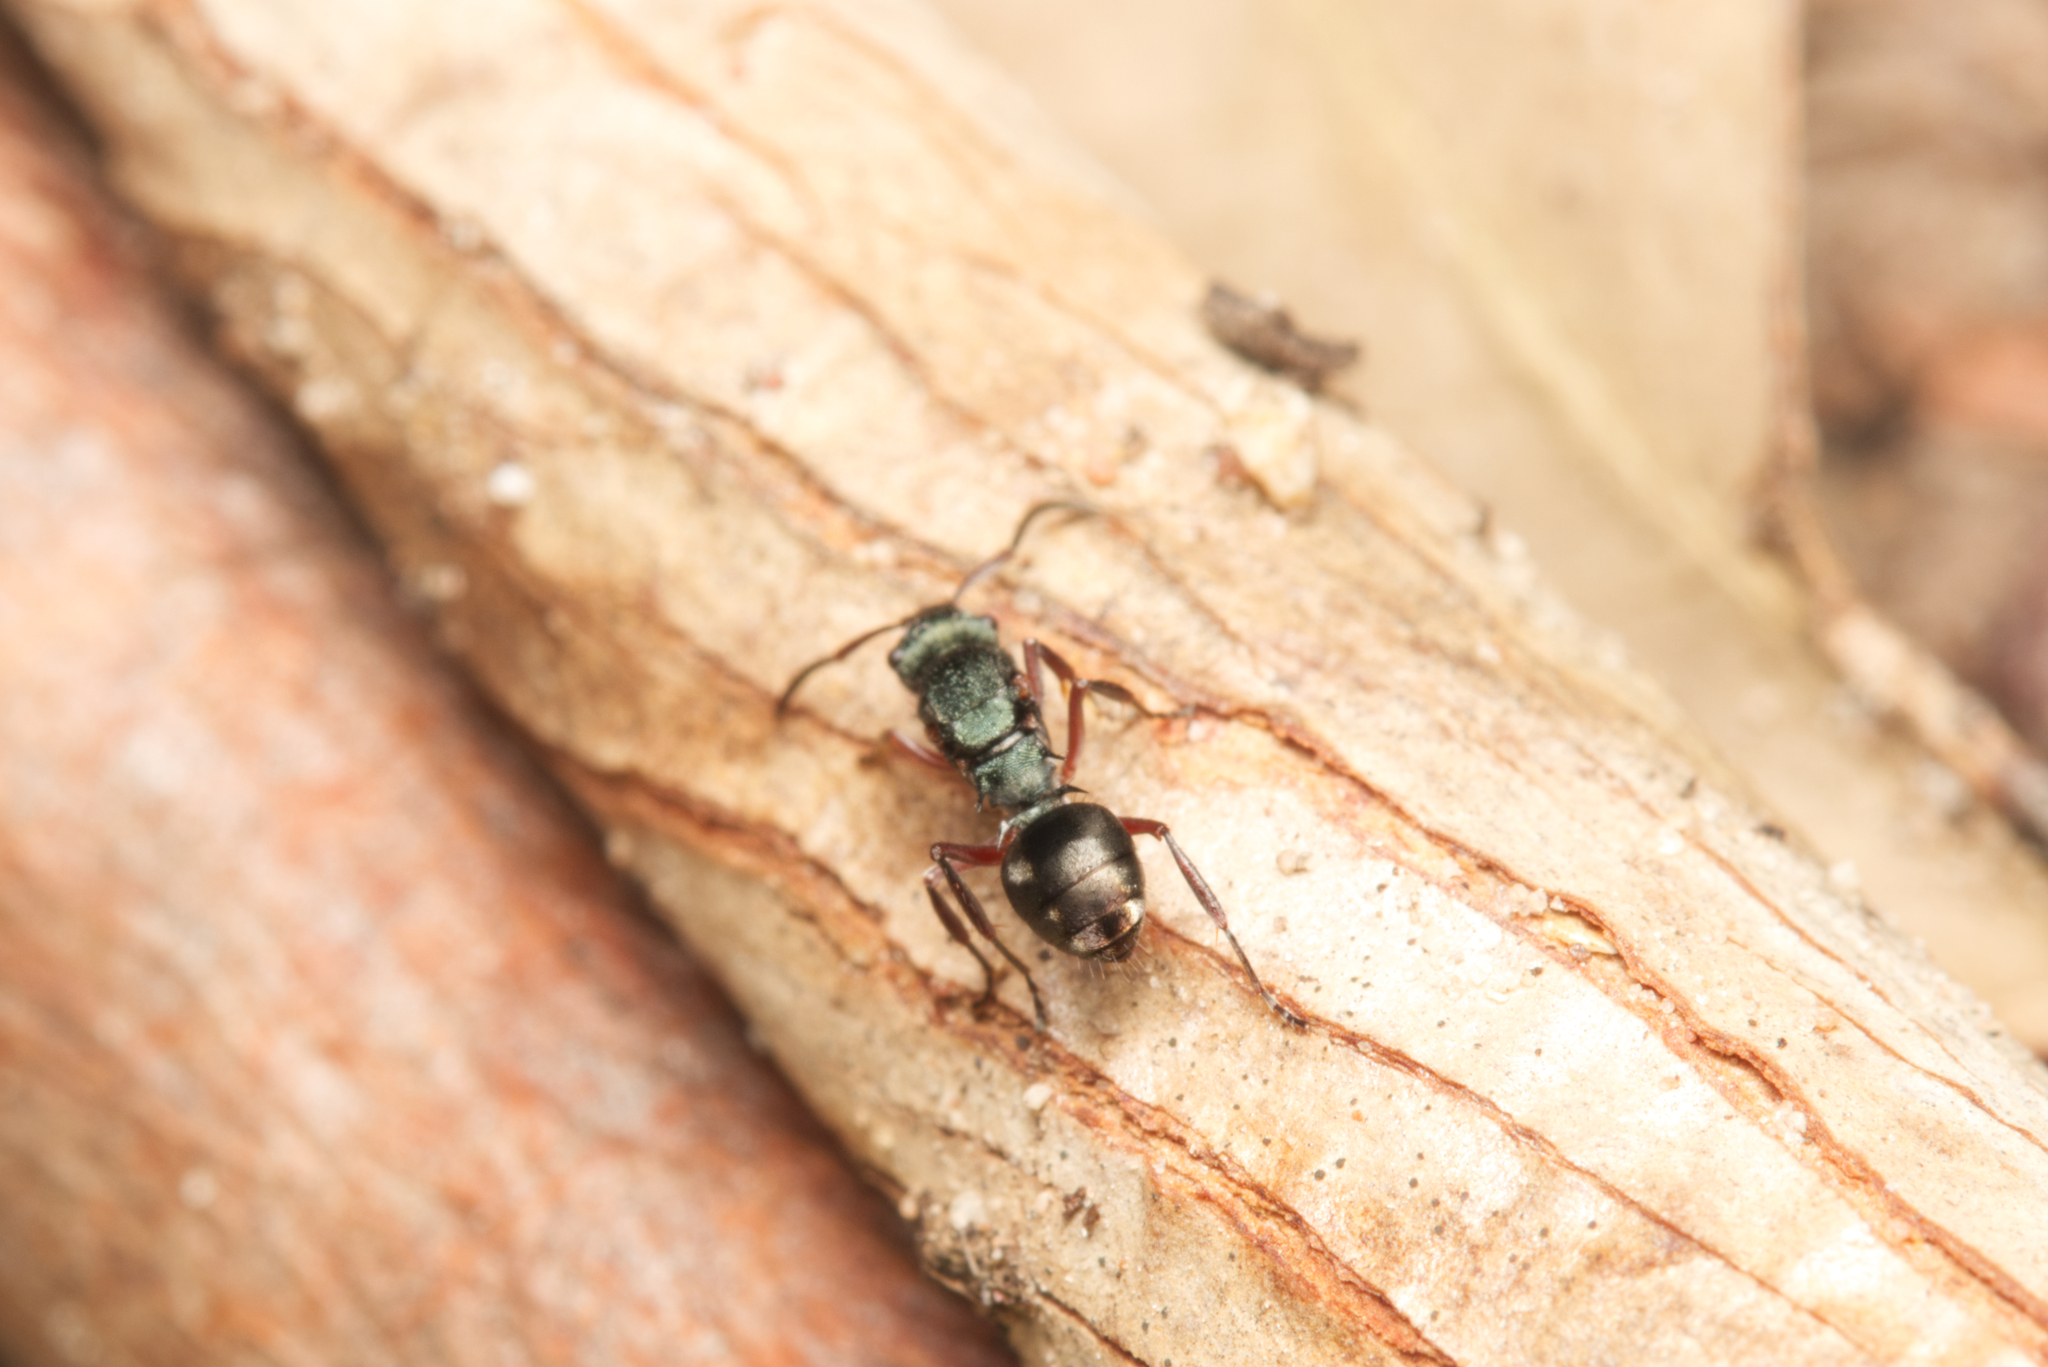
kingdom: Animalia
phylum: Arthropoda
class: Insecta
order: Hymenoptera
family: Formicidae
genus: Polyrhachis
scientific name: Polyrhachis hookeri
